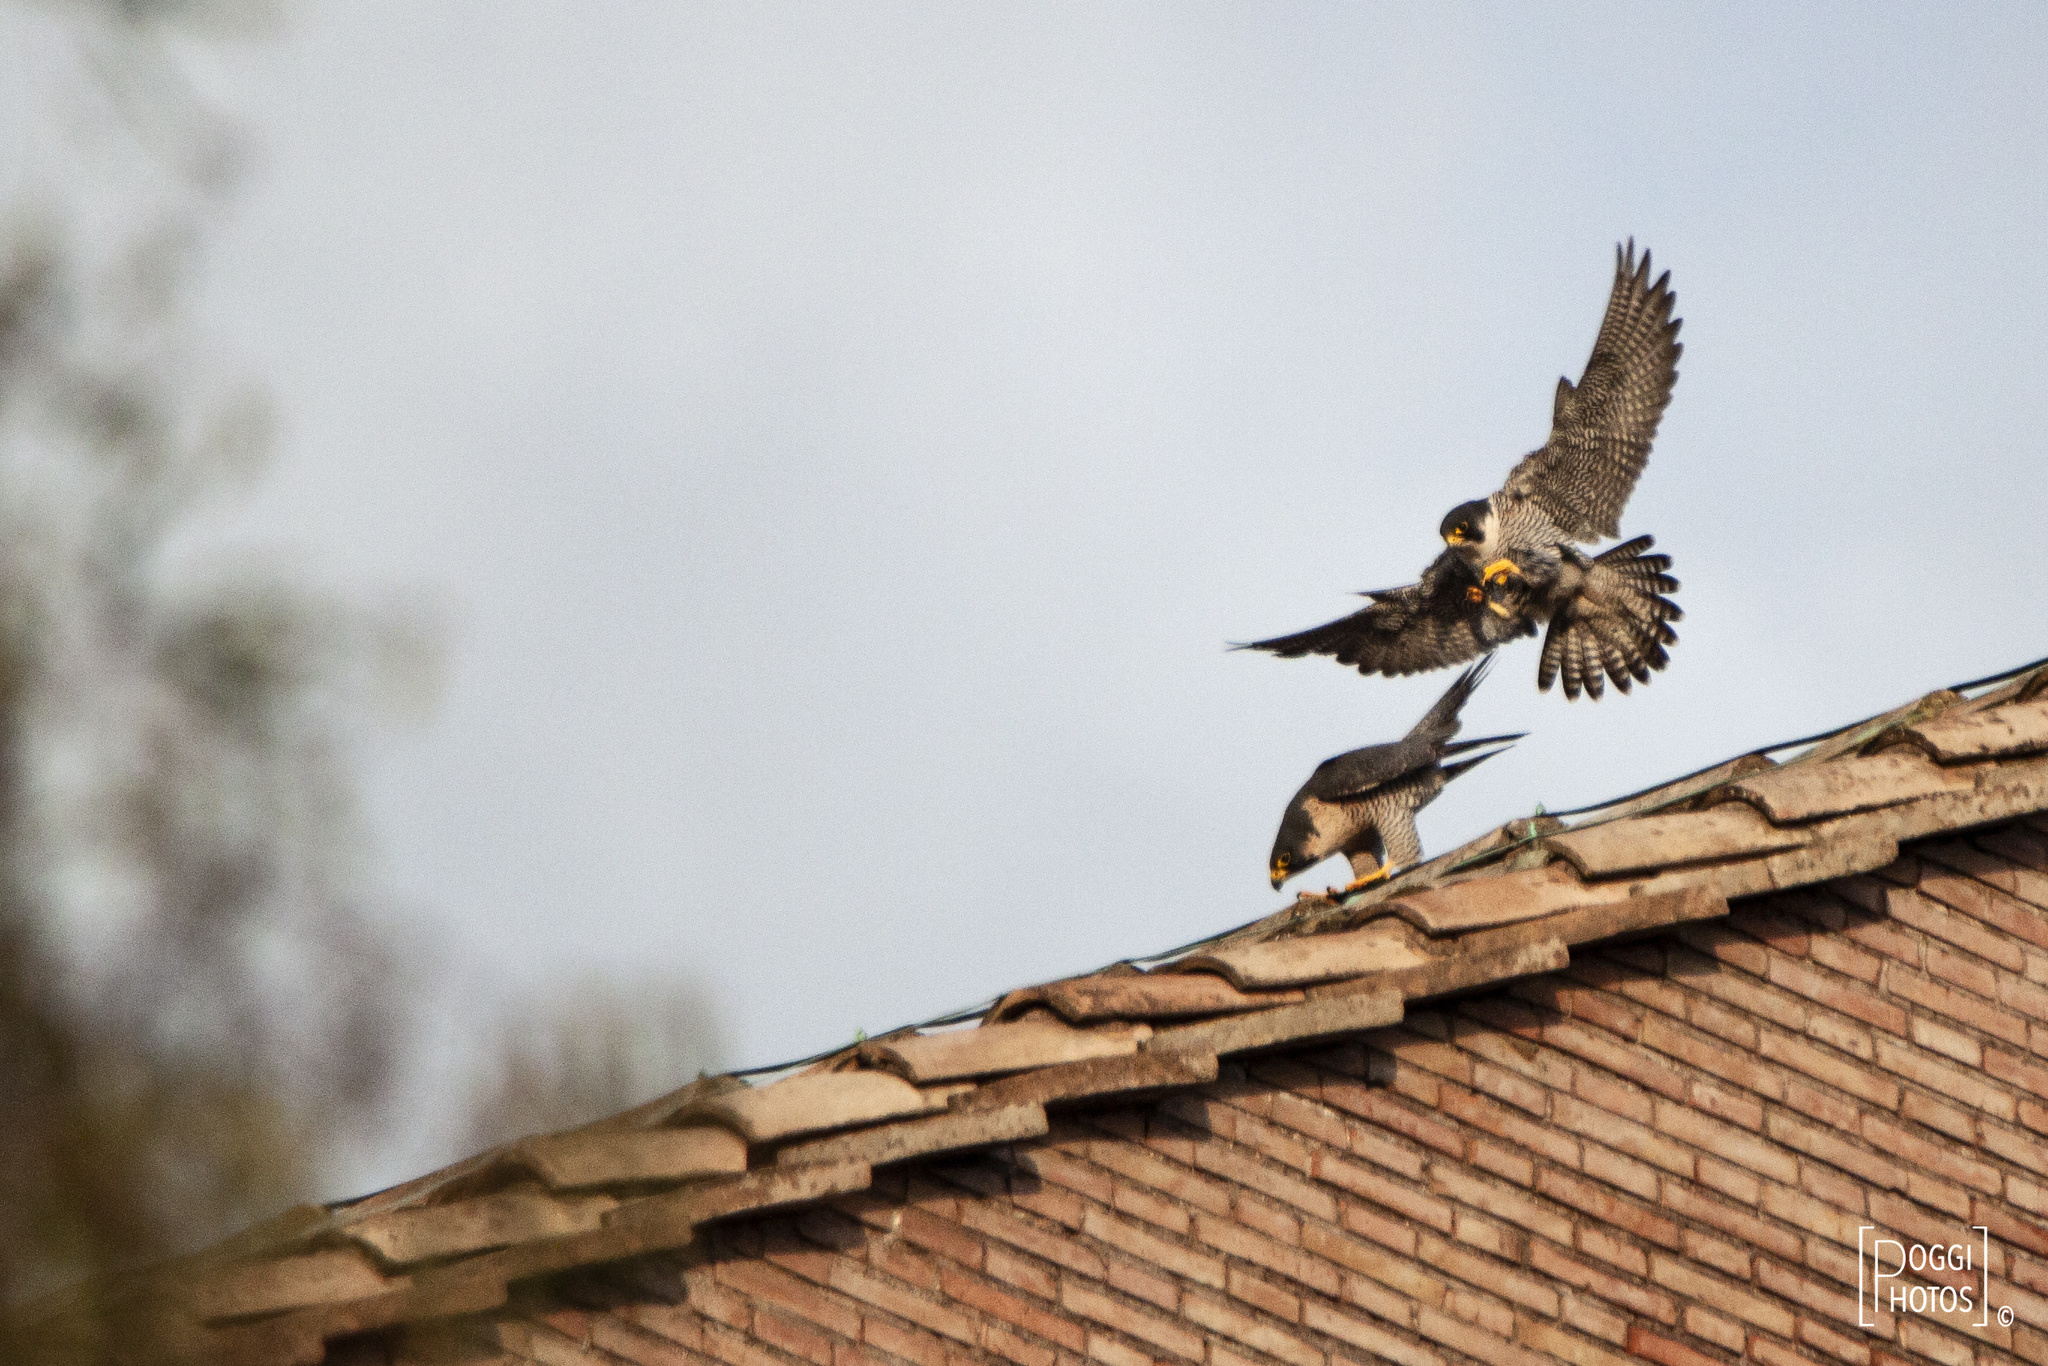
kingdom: Animalia
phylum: Chordata
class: Aves
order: Falconiformes
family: Falconidae
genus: Falco
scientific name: Falco peregrinus
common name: Peregrine falcon
